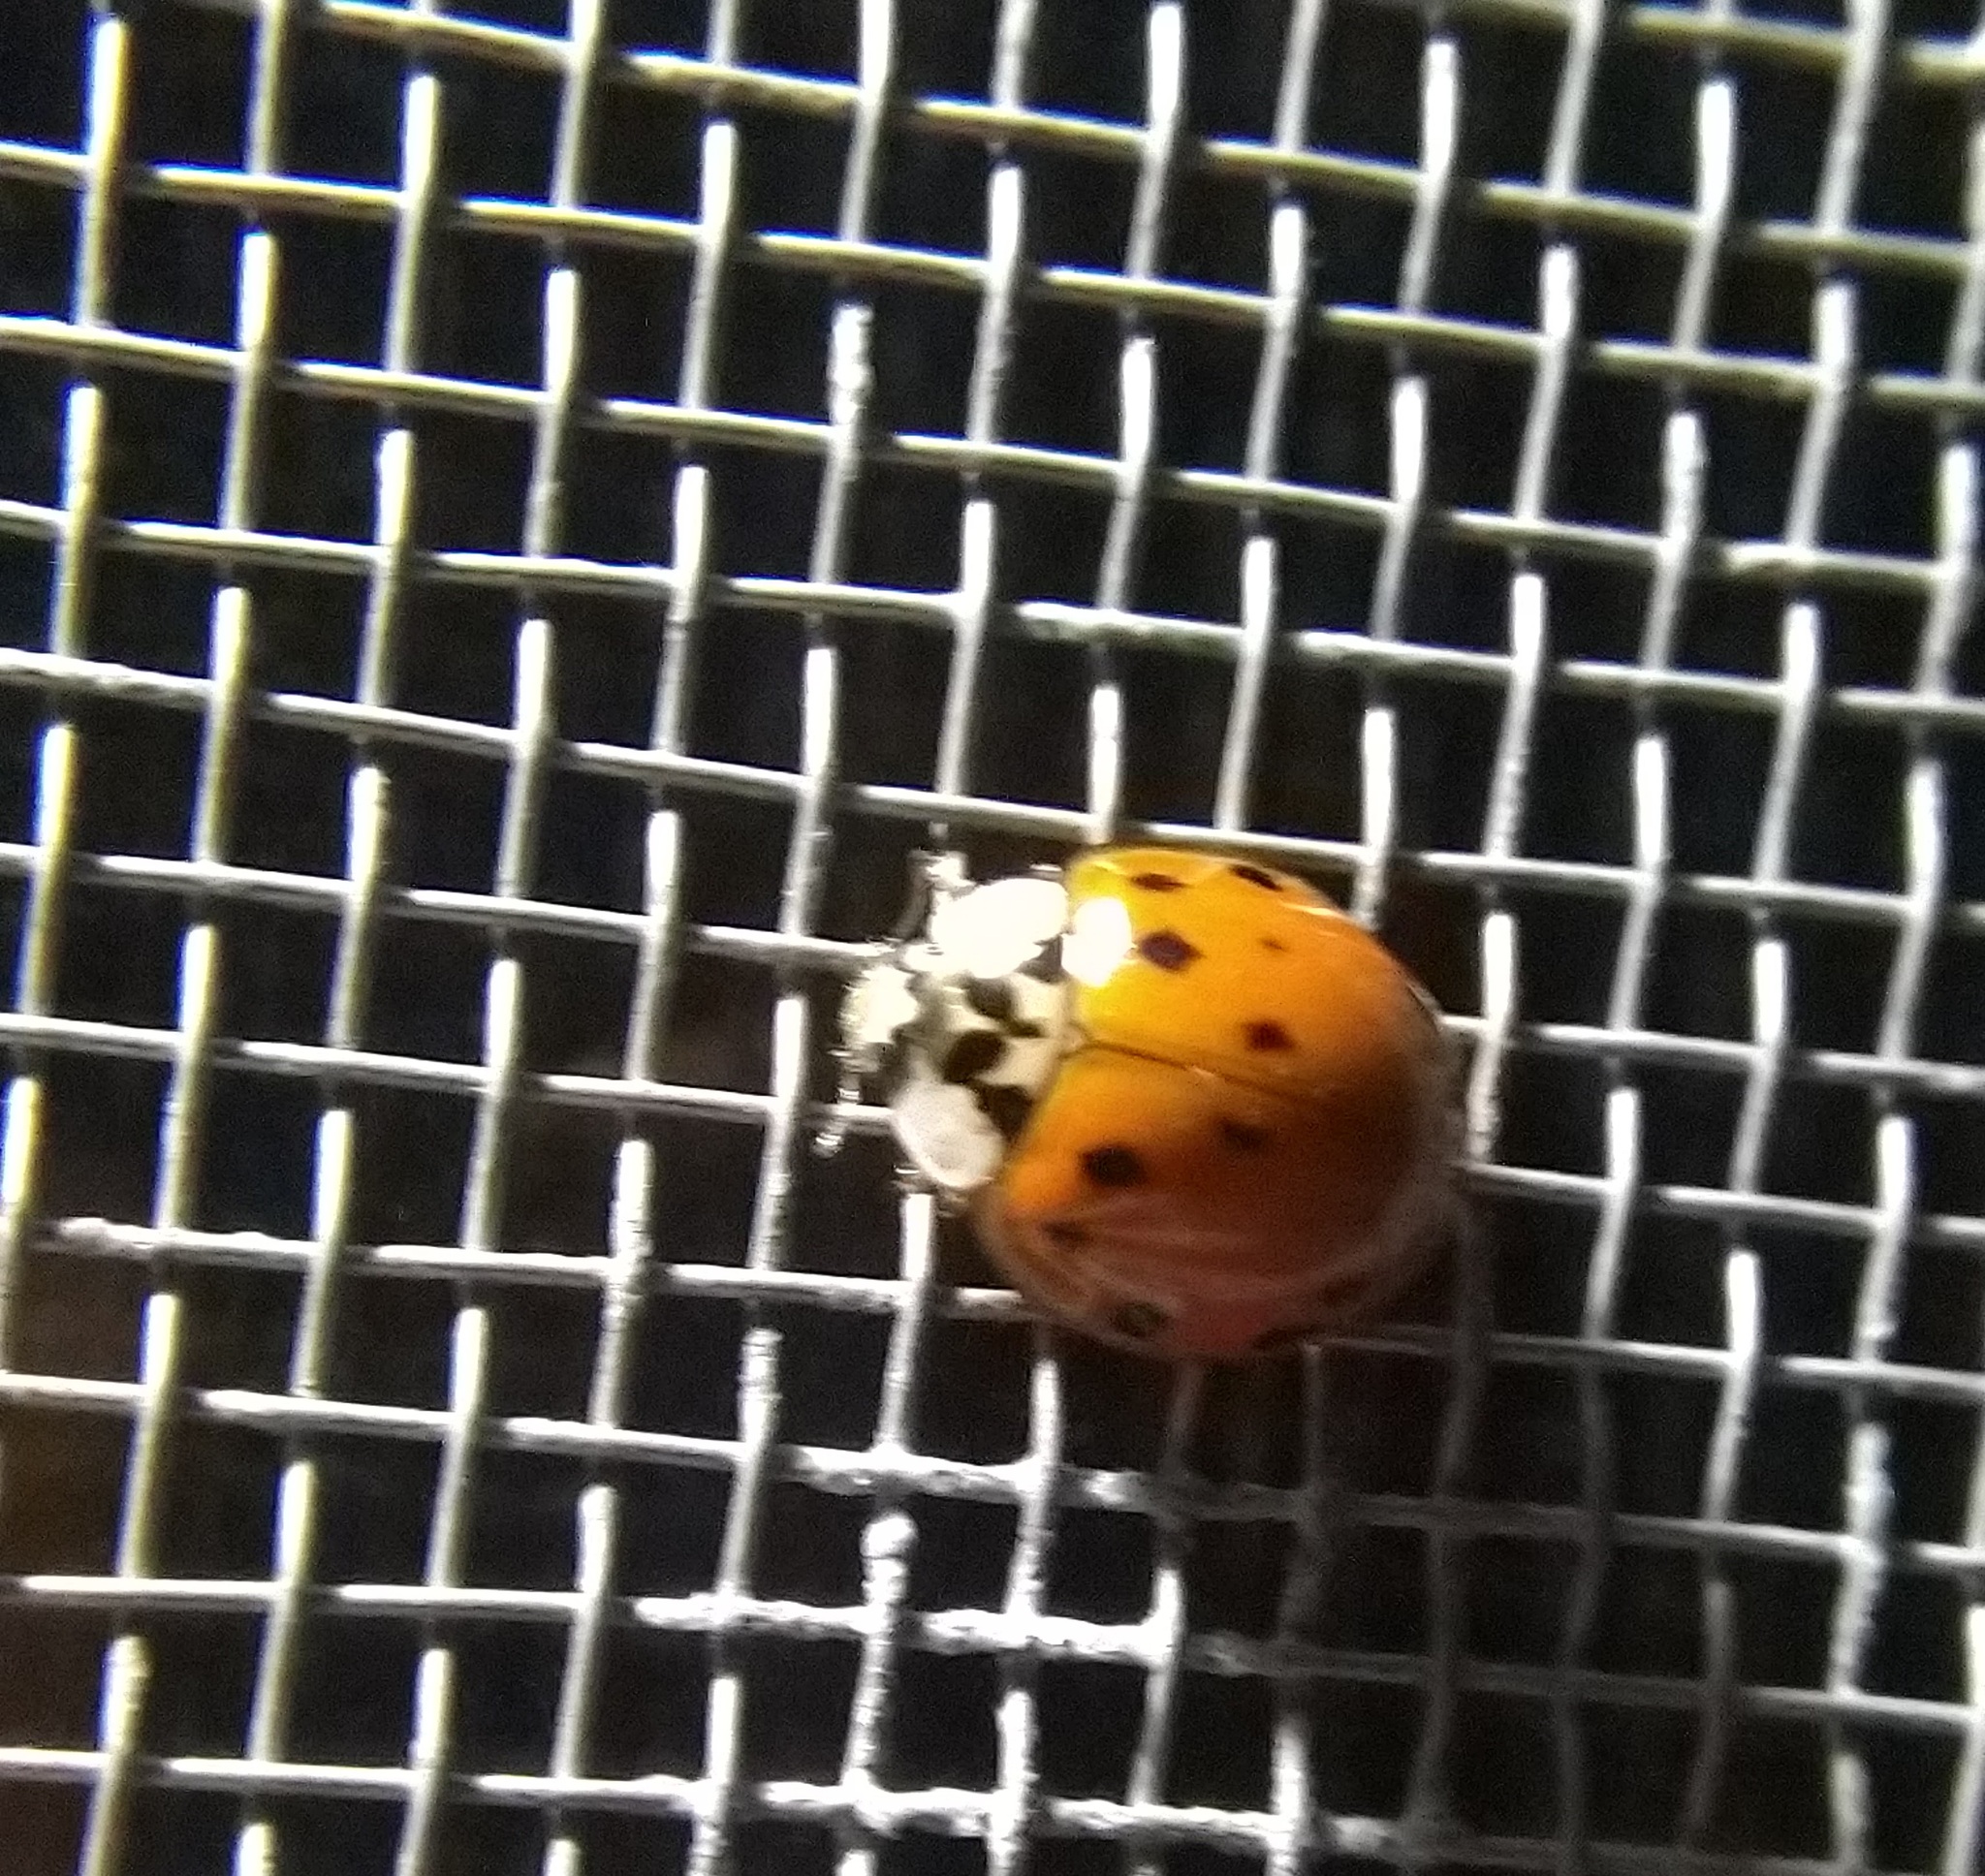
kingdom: Animalia
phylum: Arthropoda
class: Insecta
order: Coleoptera
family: Coccinellidae
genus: Harmonia
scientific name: Harmonia axyridis
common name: Harlequin ladybird
